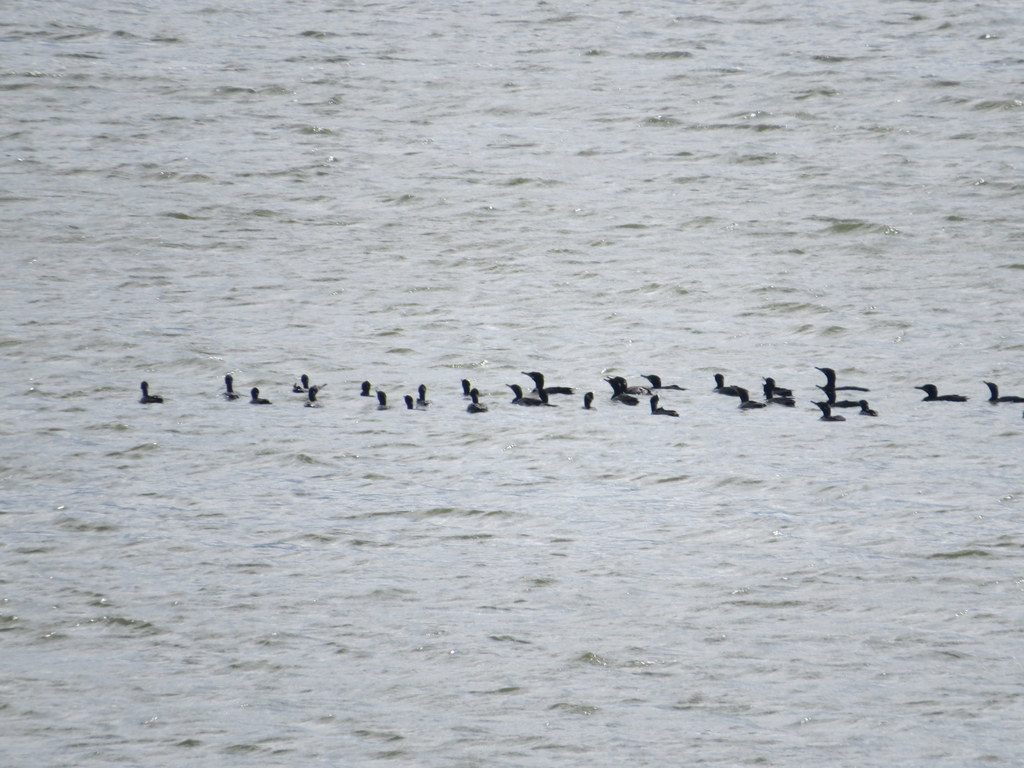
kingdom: Animalia
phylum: Chordata
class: Aves
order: Suliformes
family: Phalacrocoracidae
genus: Phalacrocorax
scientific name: Phalacrocorax brasilianus
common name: Neotropic cormorant
